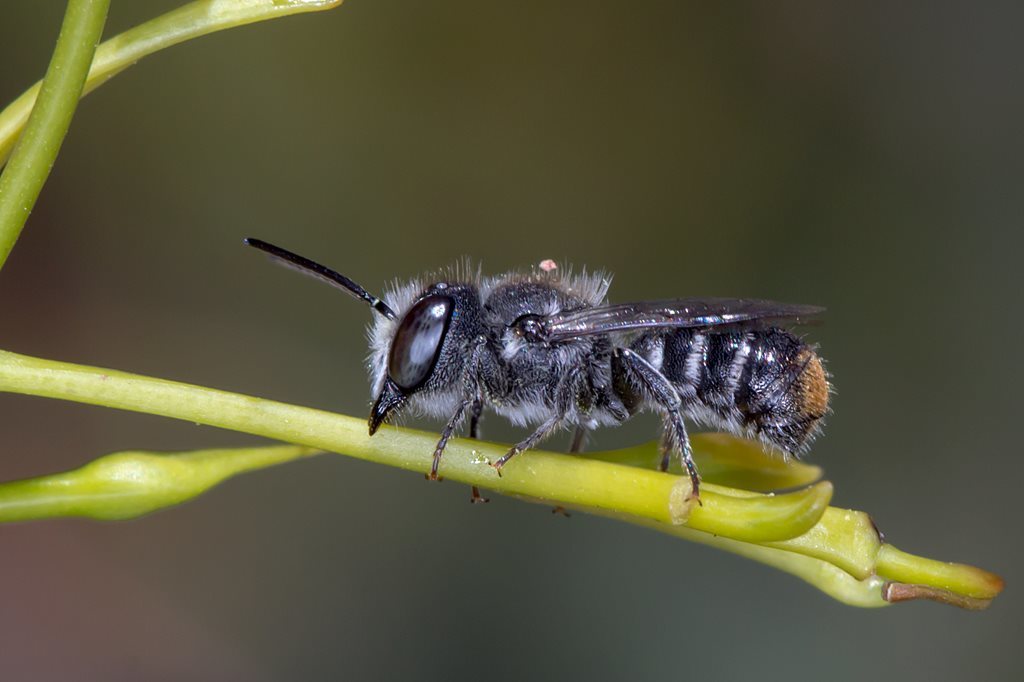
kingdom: Animalia
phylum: Arthropoda
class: Insecta
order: Hymenoptera
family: Megachilidae
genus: Megachile
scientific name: Megachile canifrons
